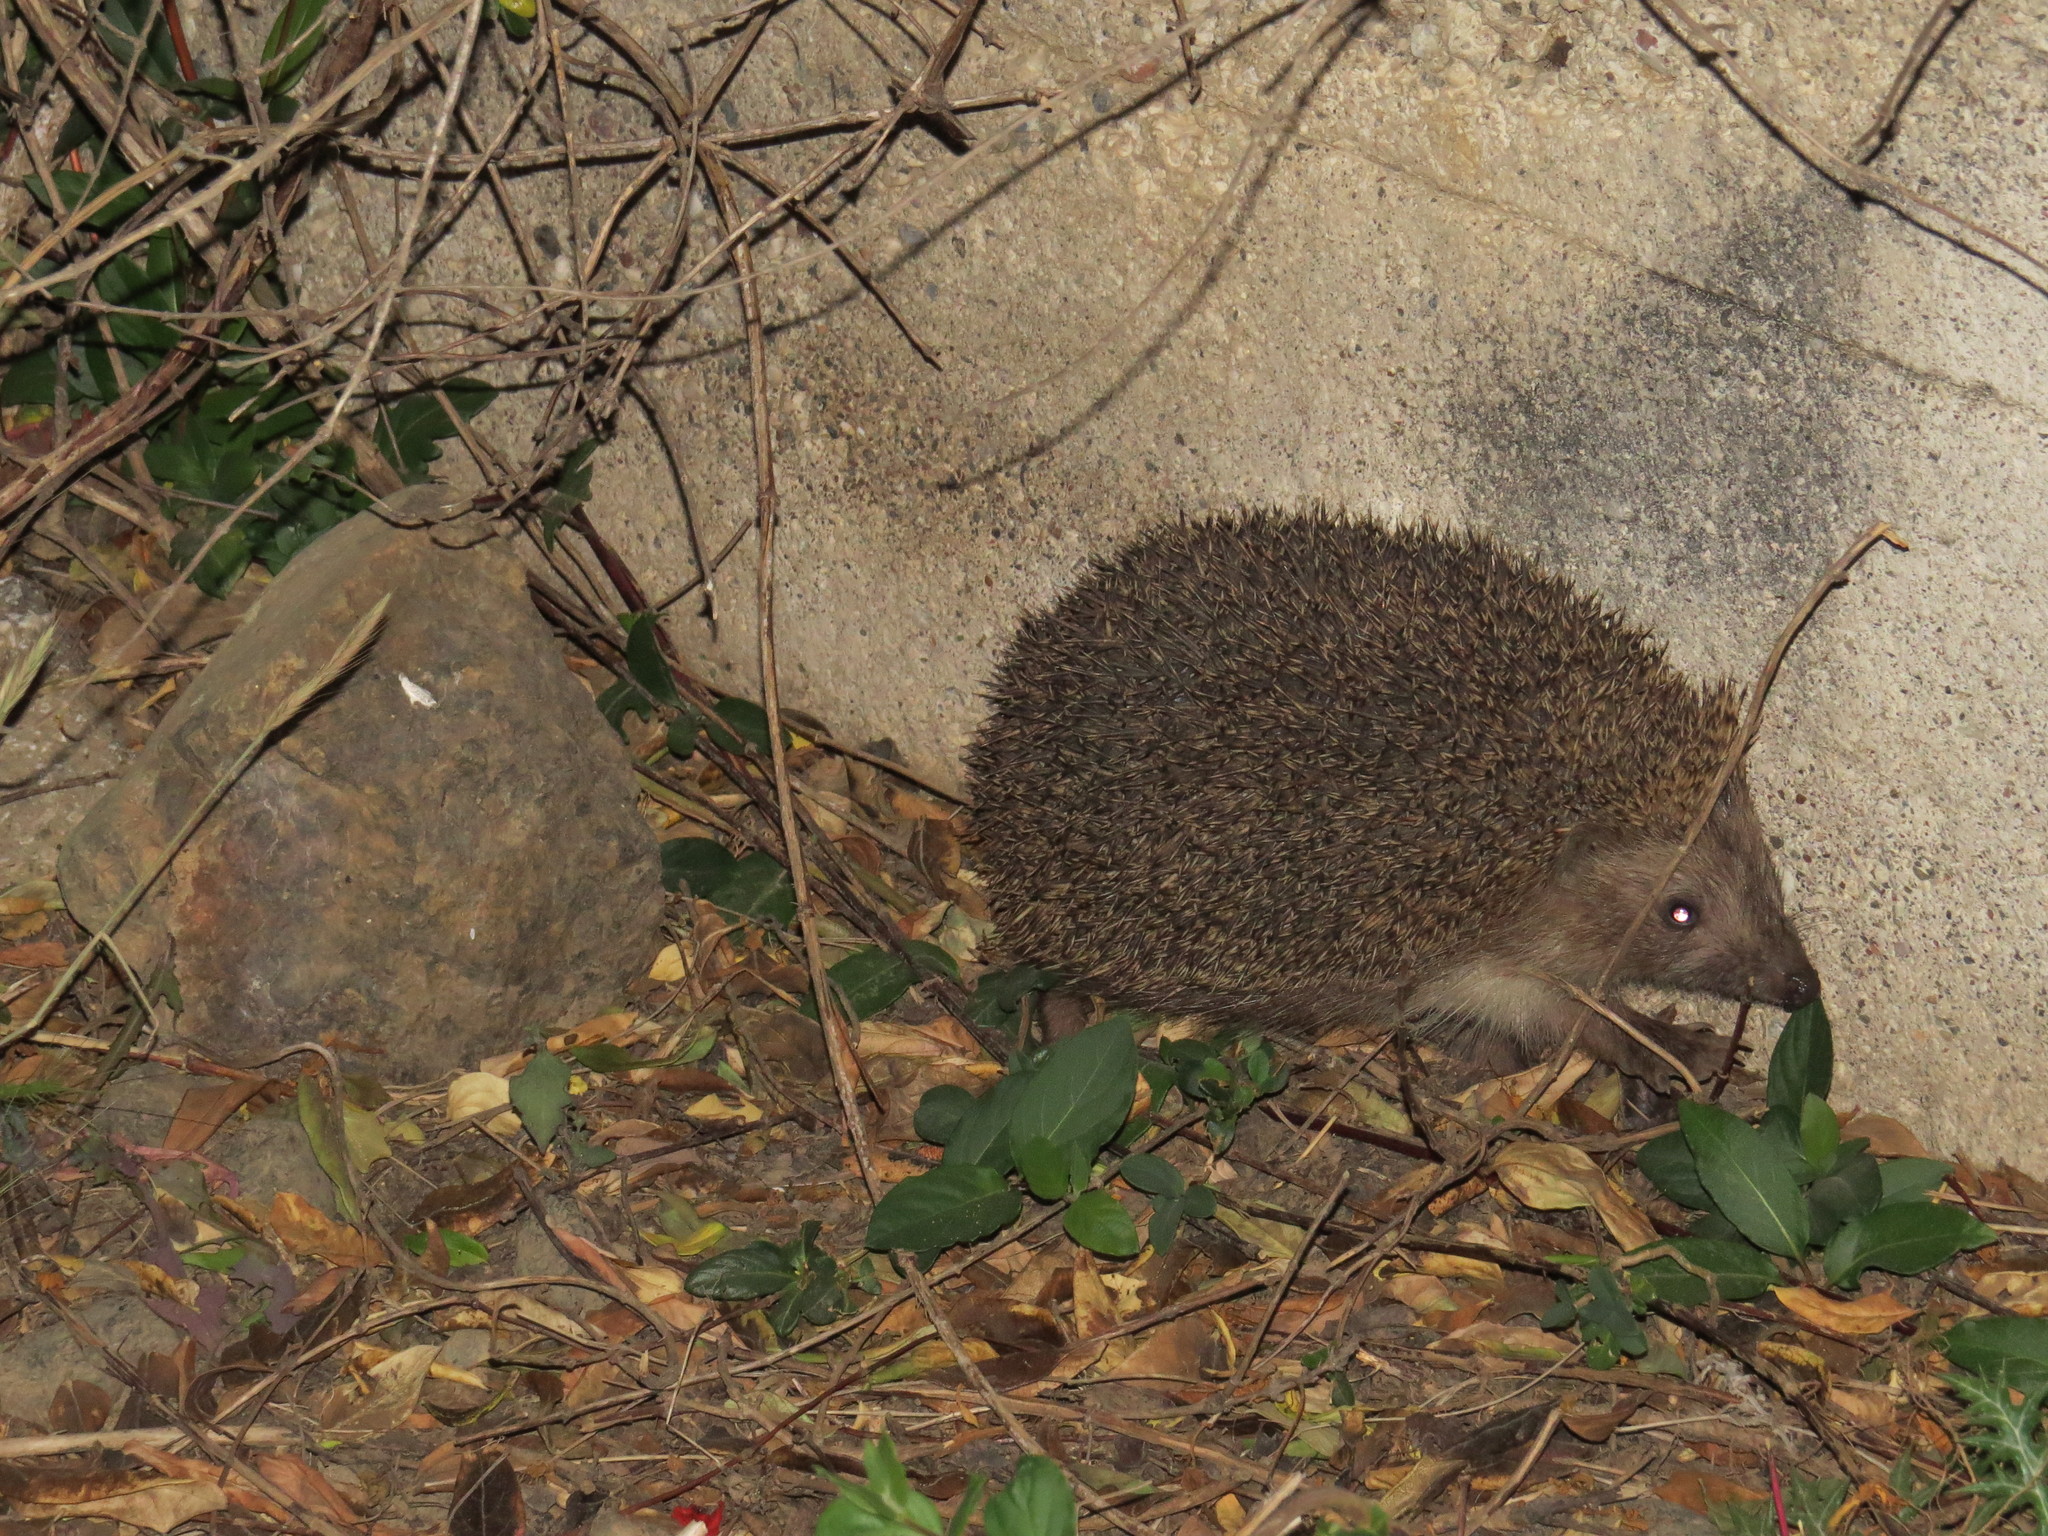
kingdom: Animalia
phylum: Chordata
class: Mammalia
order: Erinaceomorpha
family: Erinaceidae
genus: Erinaceus
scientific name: Erinaceus concolor
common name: Southern white-breasted hedgehog
